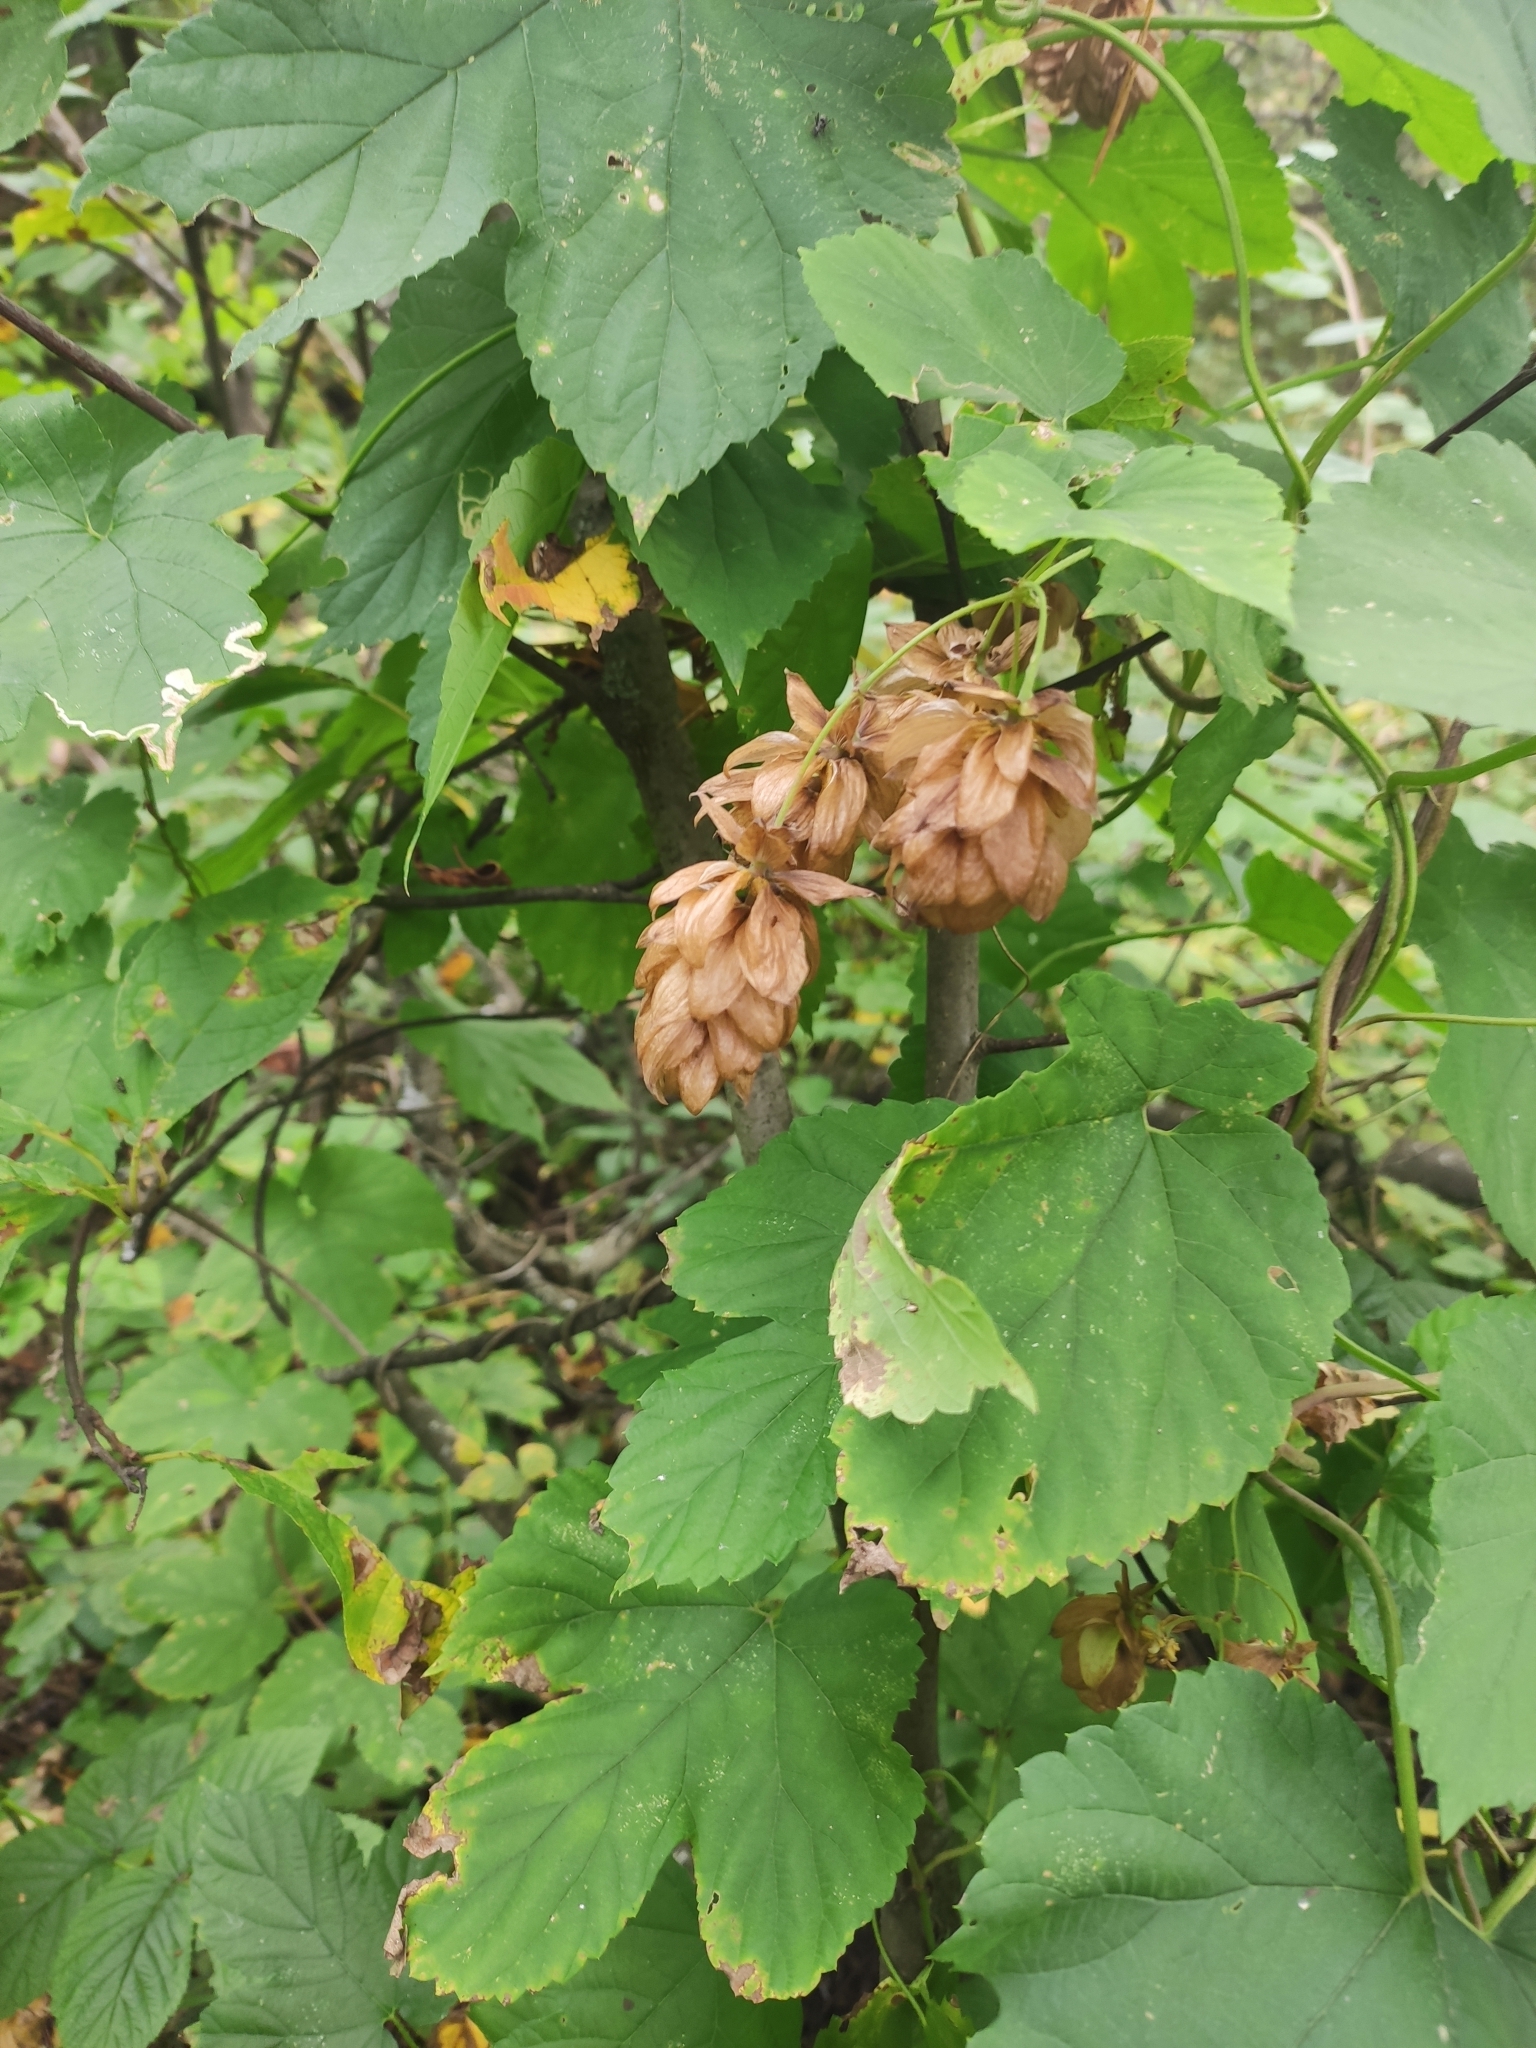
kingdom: Plantae
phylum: Tracheophyta
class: Magnoliopsida
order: Rosales
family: Cannabaceae
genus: Humulus
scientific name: Humulus lupulus
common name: Hop
